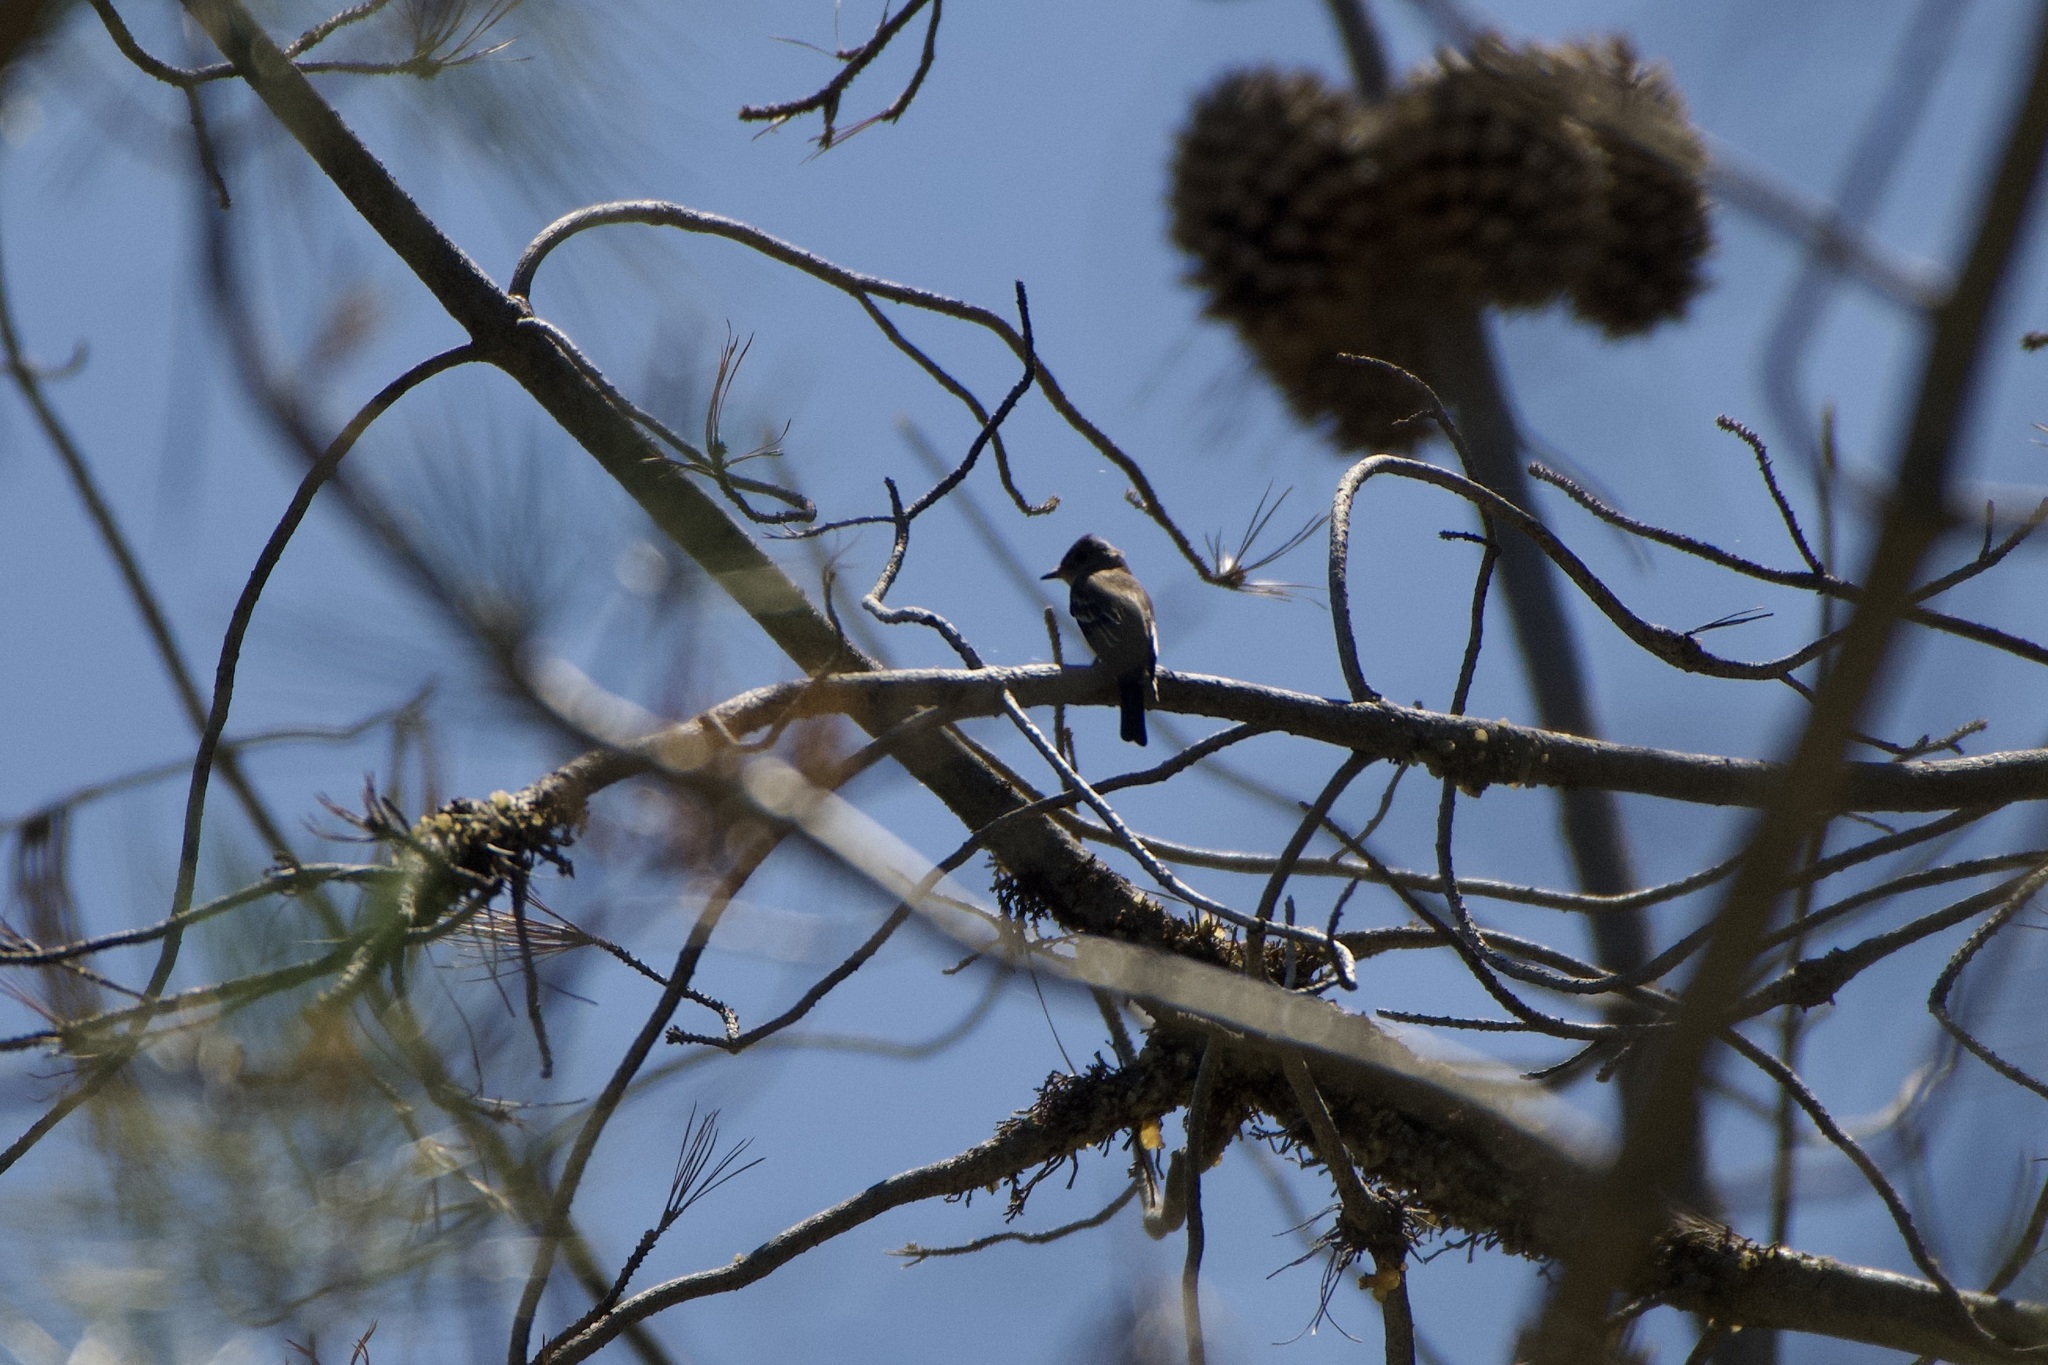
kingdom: Animalia
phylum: Chordata
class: Aves
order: Passeriformes
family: Tyrannidae
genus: Contopus
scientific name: Contopus sordidulus
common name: Western wood-pewee
